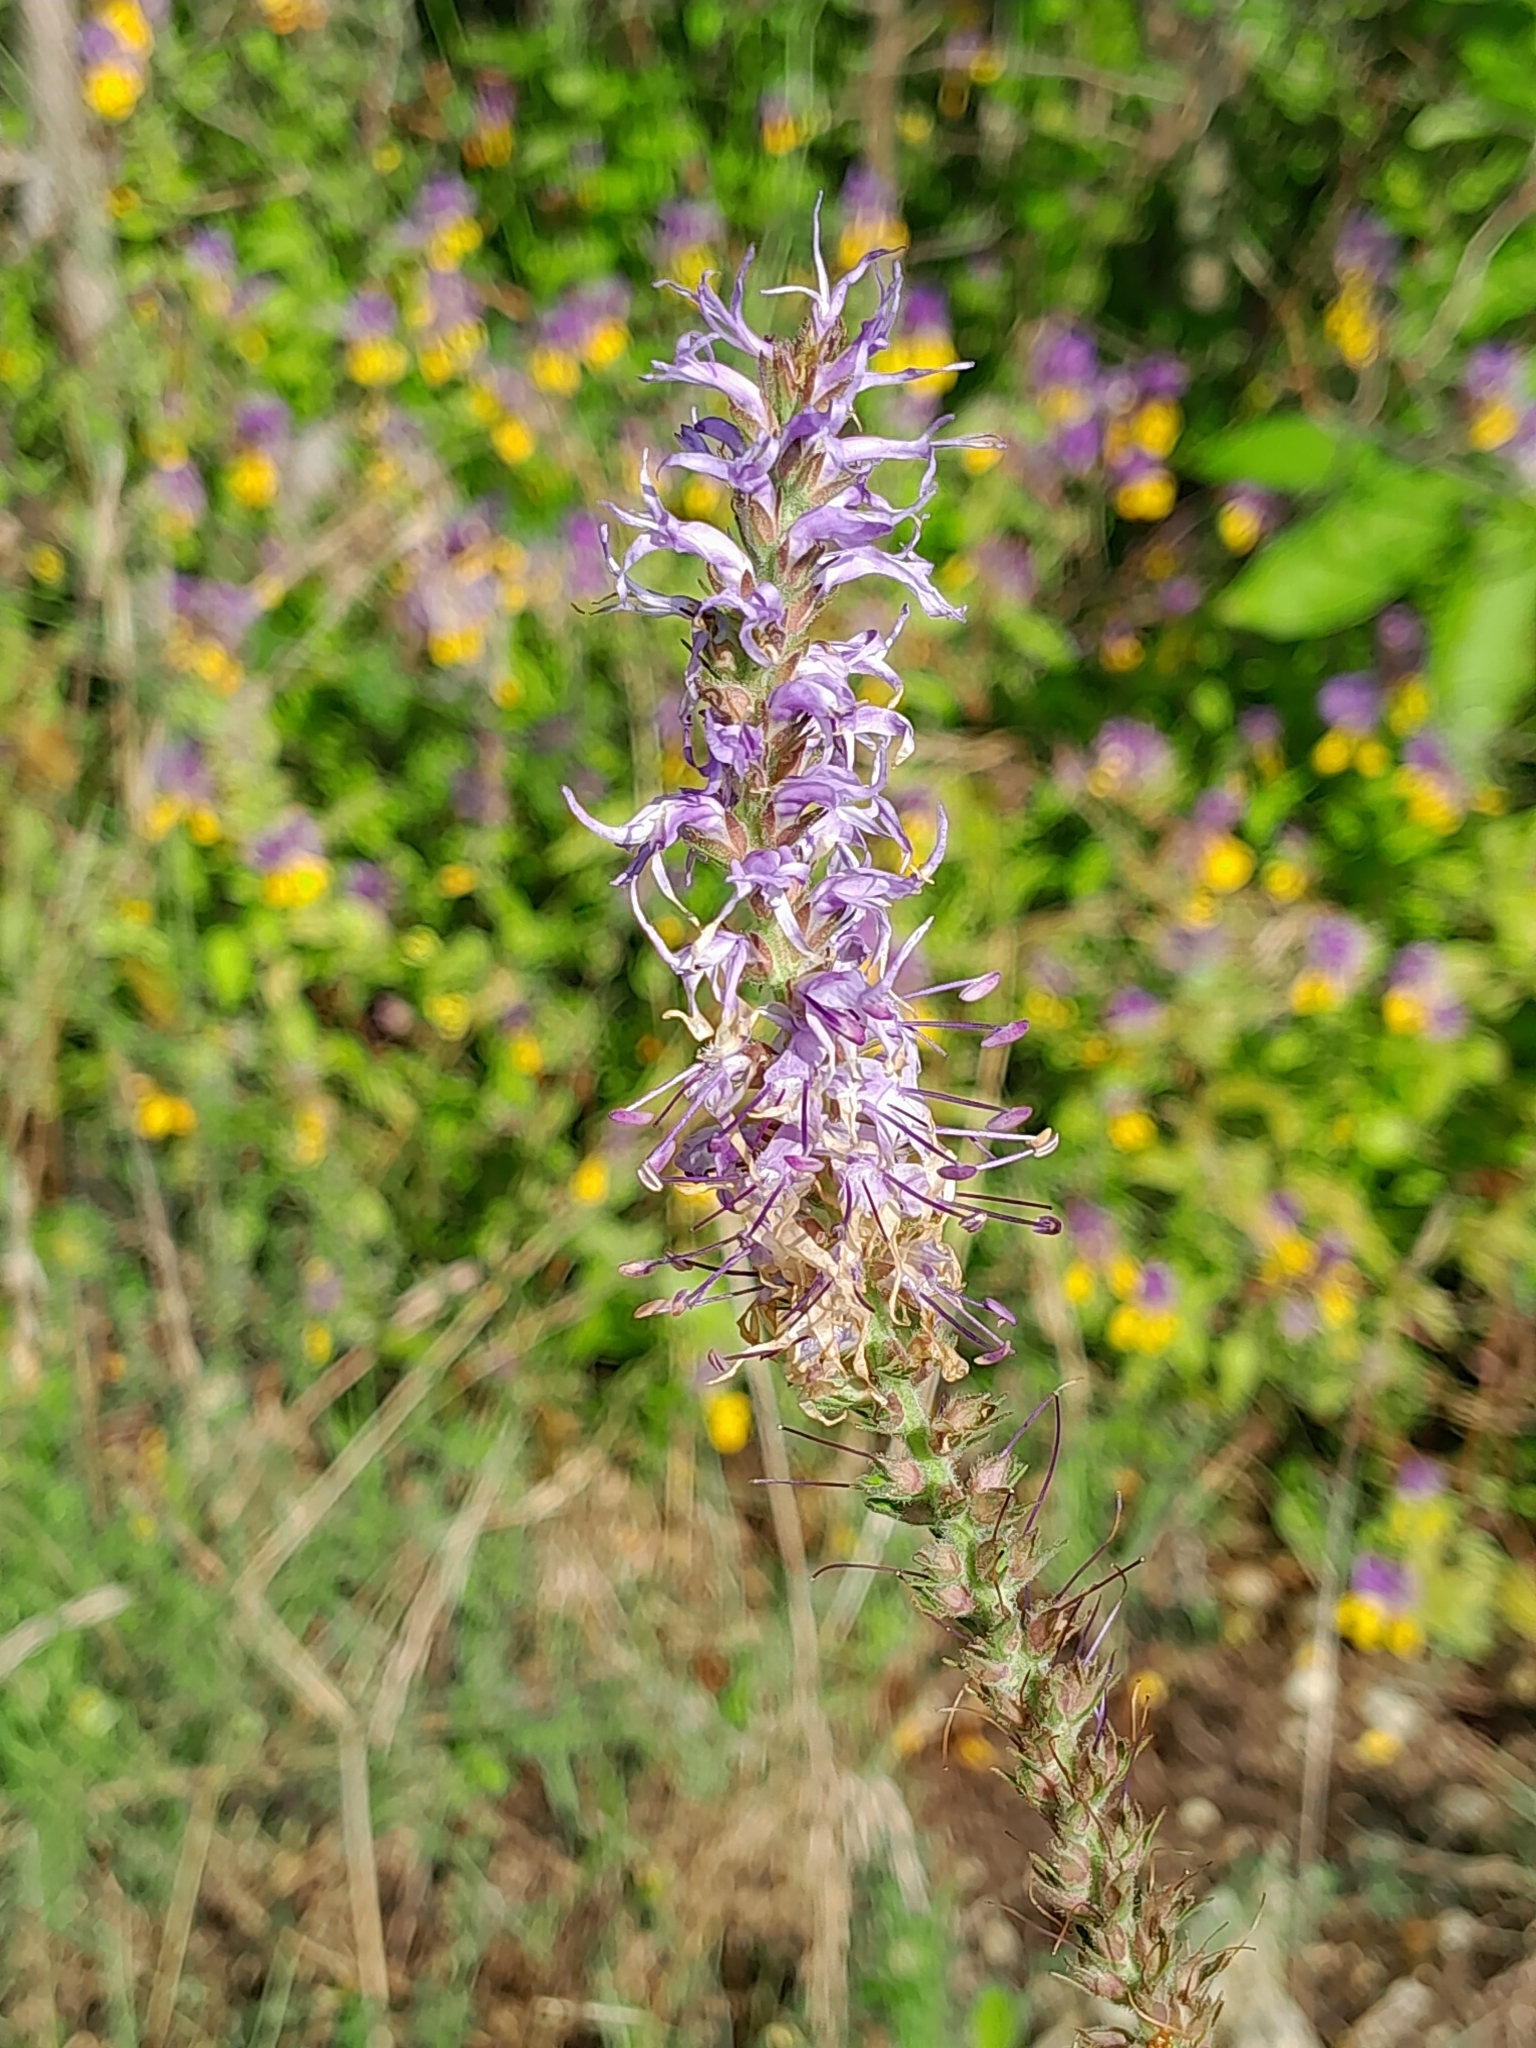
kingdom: Plantae
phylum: Tracheophyta
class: Magnoliopsida
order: Lamiales
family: Plantaginaceae
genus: Veronica
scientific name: Veronica orchidea
